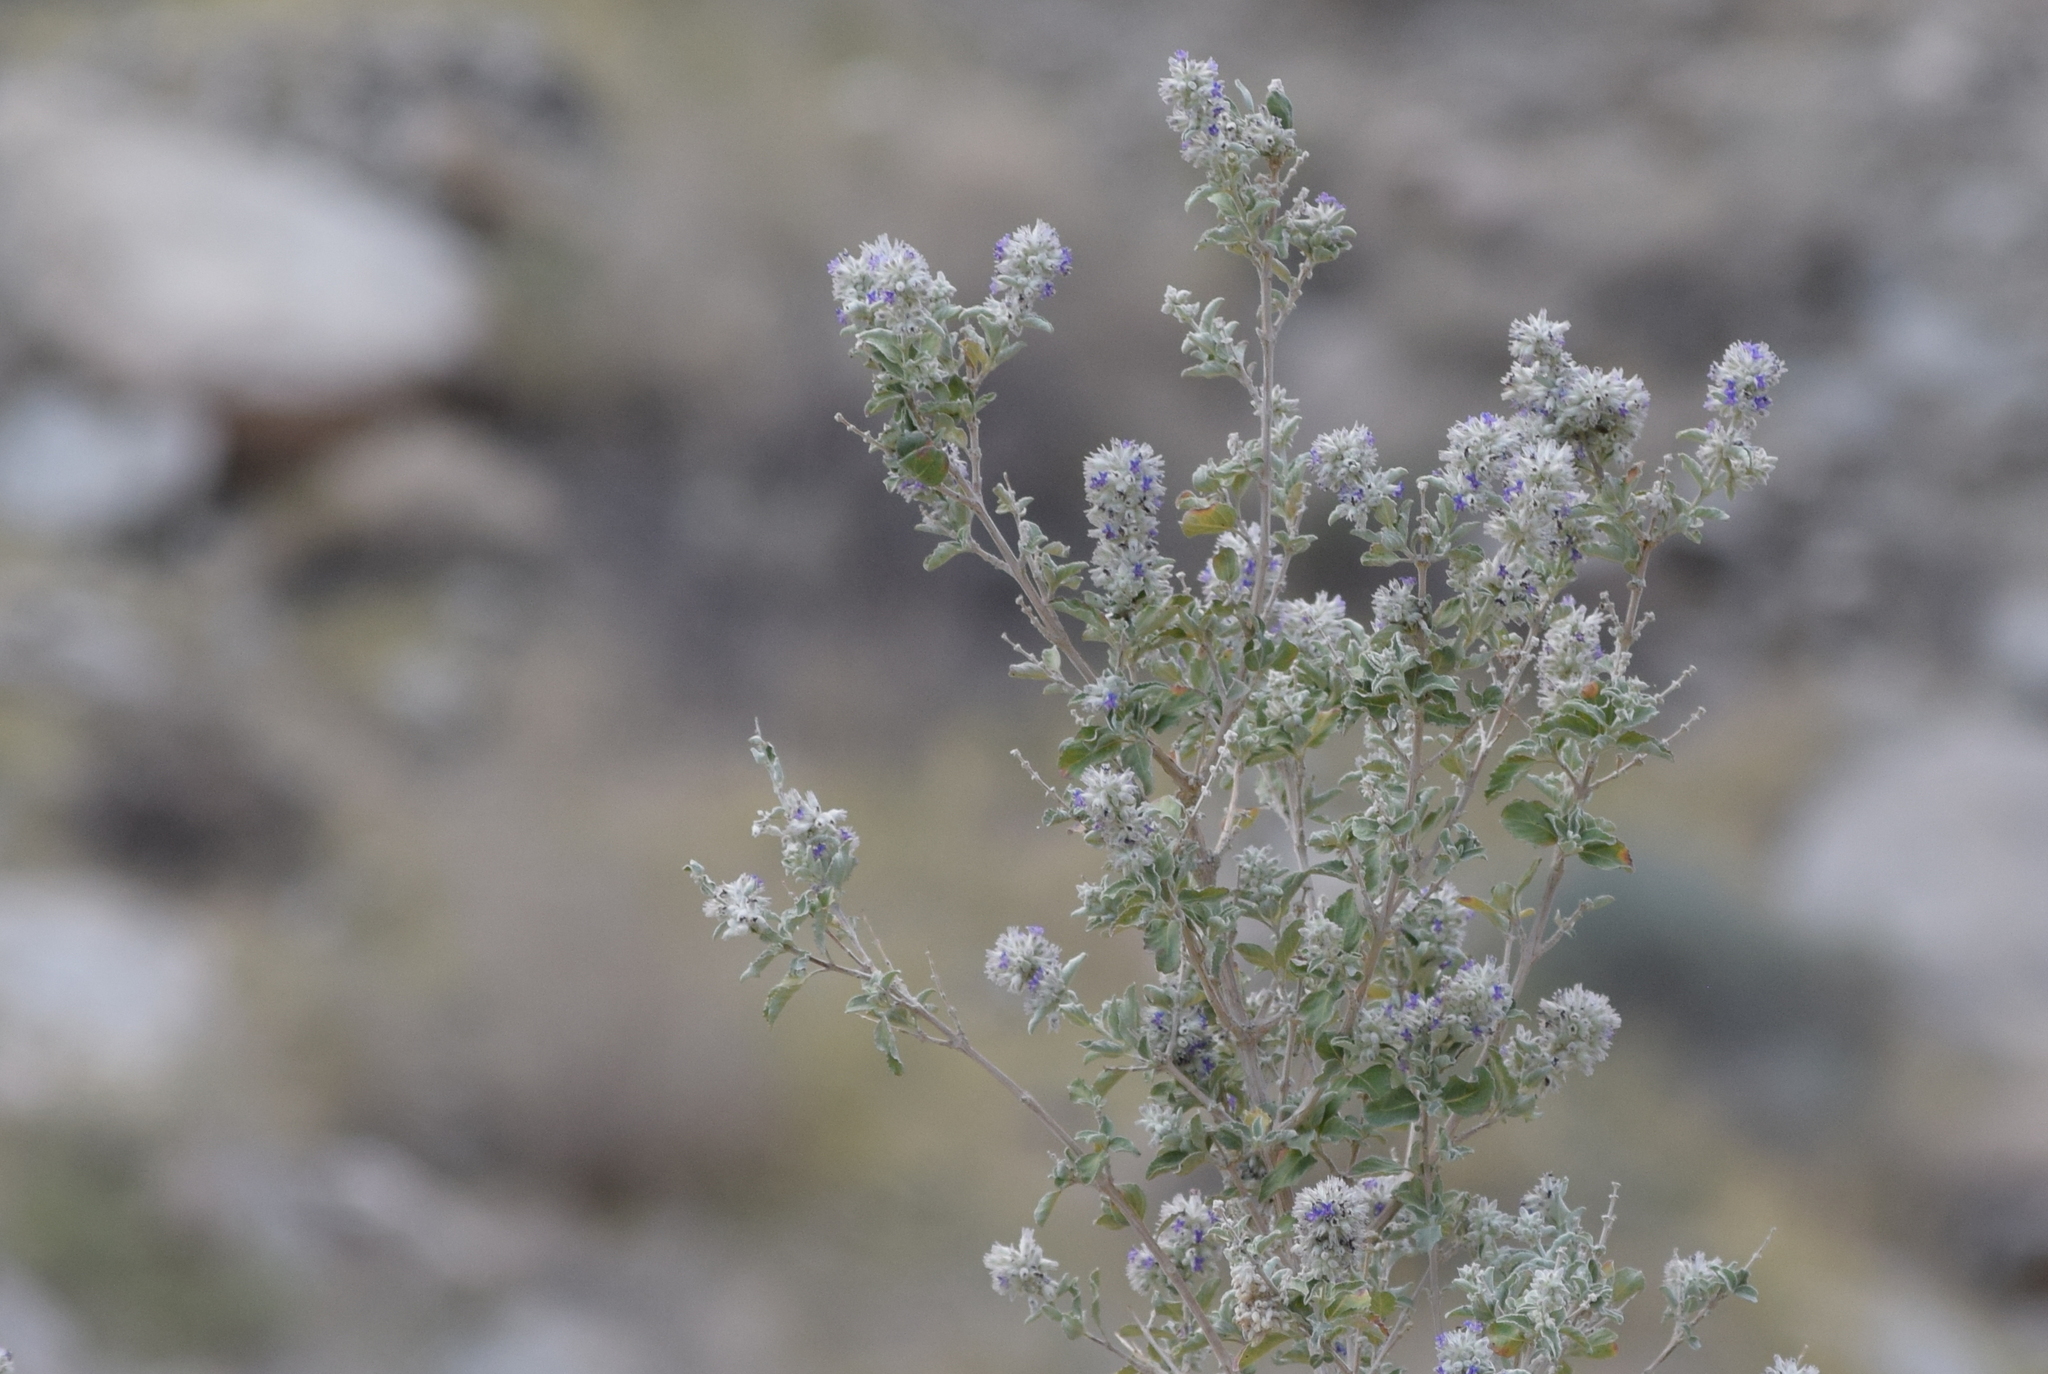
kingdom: Plantae
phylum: Tracheophyta
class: Magnoliopsida
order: Lamiales
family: Lamiaceae
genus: Condea
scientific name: Condea emoryi
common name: Chia
